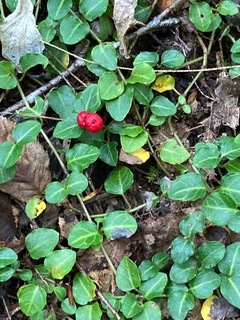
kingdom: Plantae
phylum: Tracheophyta
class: Magnoliopsida
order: Gentianales
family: Rubiaceae
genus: Mitchella
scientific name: Mitchella repens
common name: Partridge-berry
